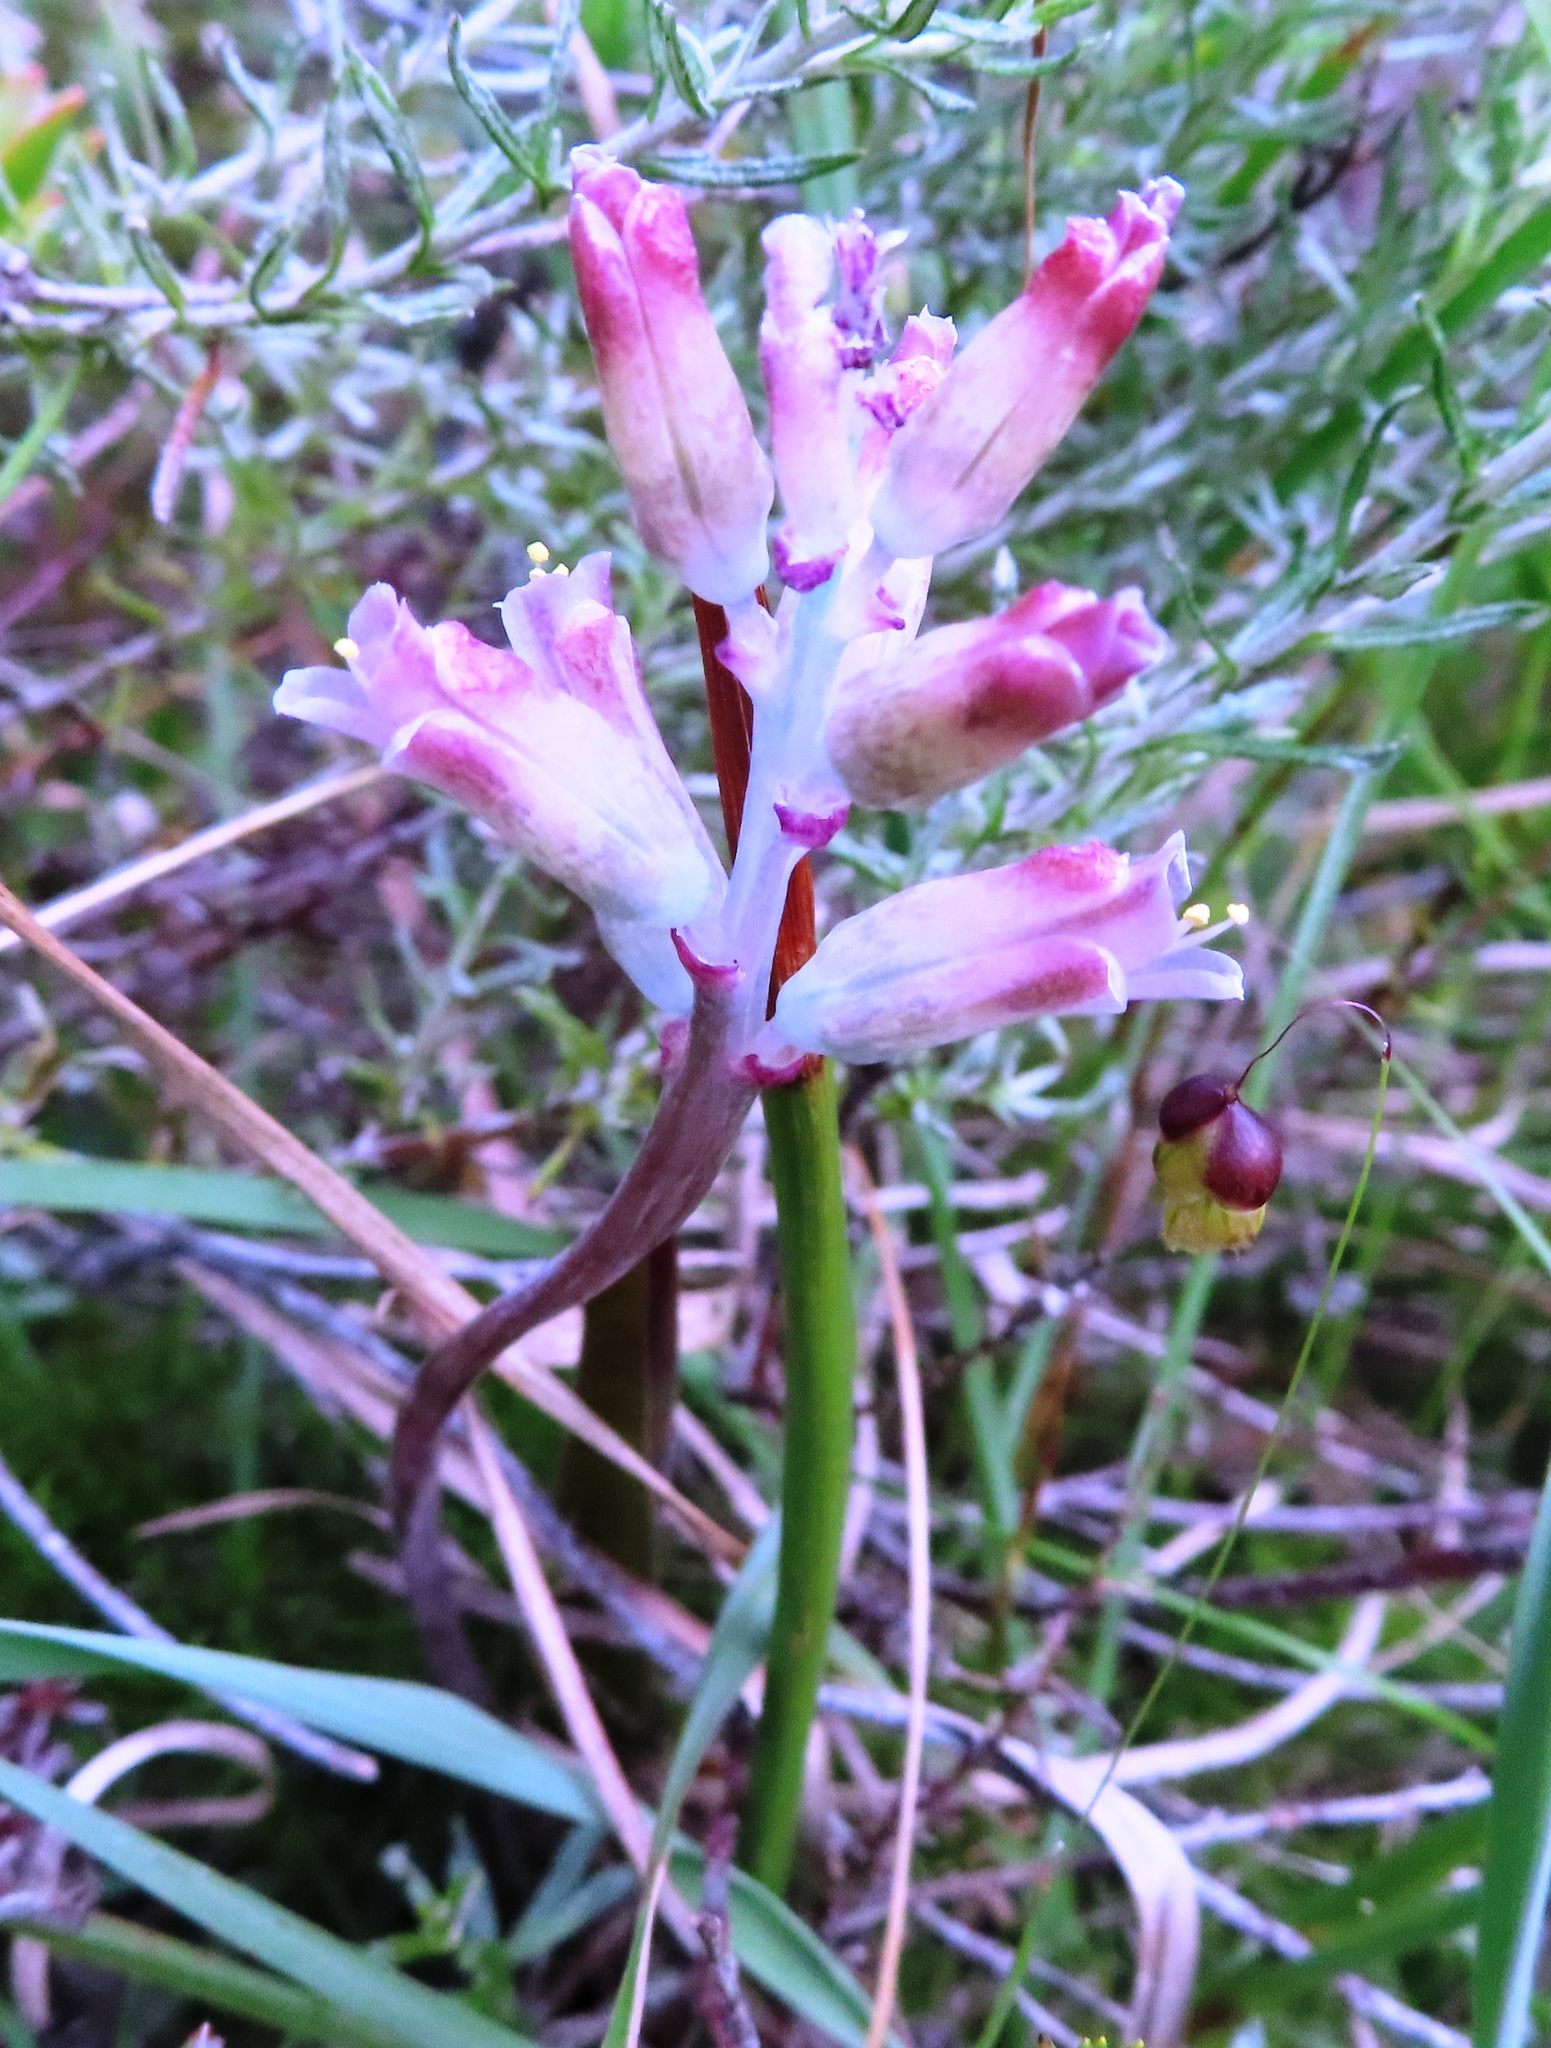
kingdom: Plantae
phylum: Tracheophyta
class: Liliopsida
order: Asparagales
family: Asparagaceae
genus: Lachenalia
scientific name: Lachenalia salteri
